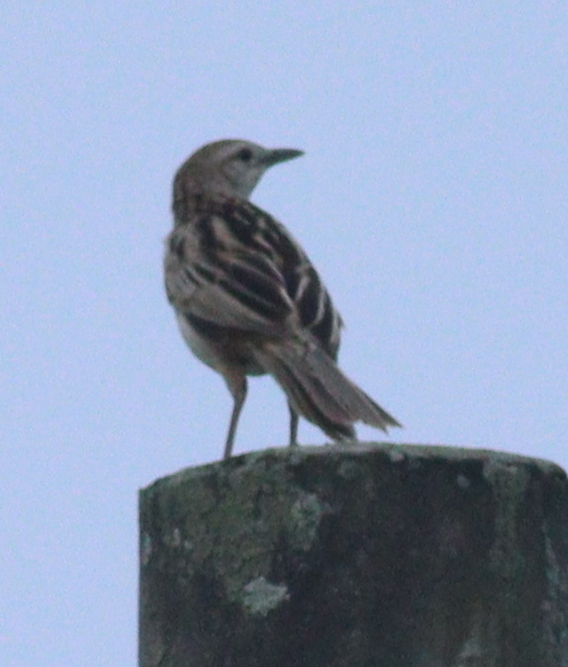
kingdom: Animalia
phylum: Chordata
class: Aves
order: Passeriformes
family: Locustellidae
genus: Megalurus
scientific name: Megalurus palustris
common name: Striated grassbird
